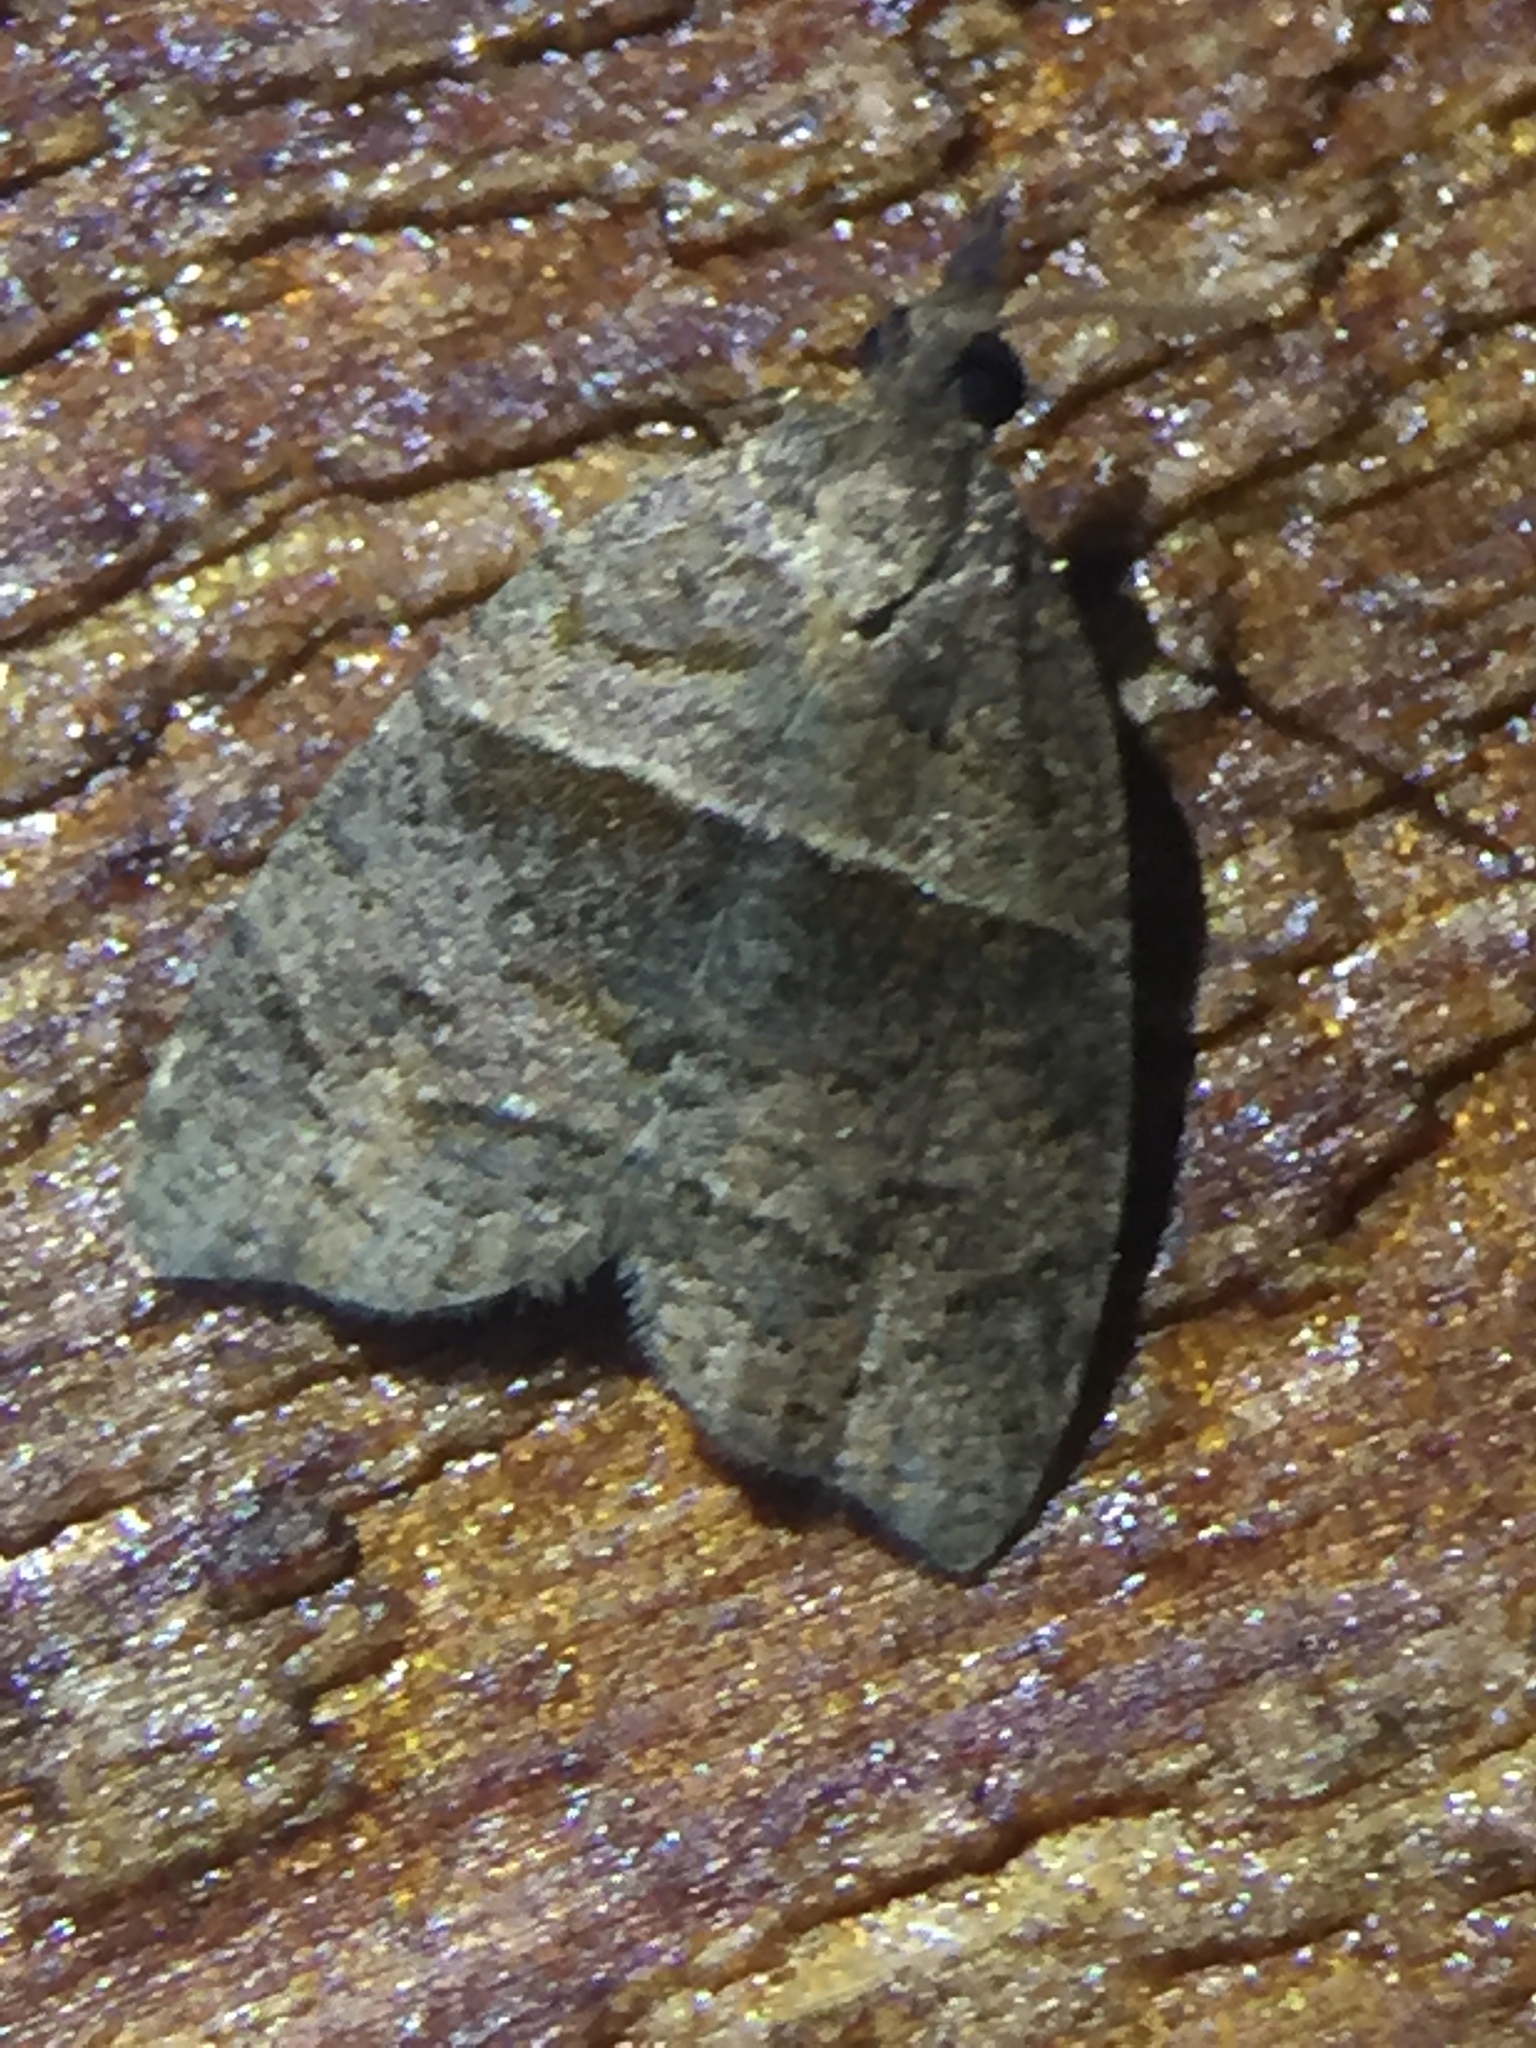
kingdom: Animalia
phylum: Arthropoda
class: Insecta
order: Lepidoptera
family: Tortricidae
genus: Cnephasia
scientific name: Cnephasia incertana
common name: Light grey tortrix
